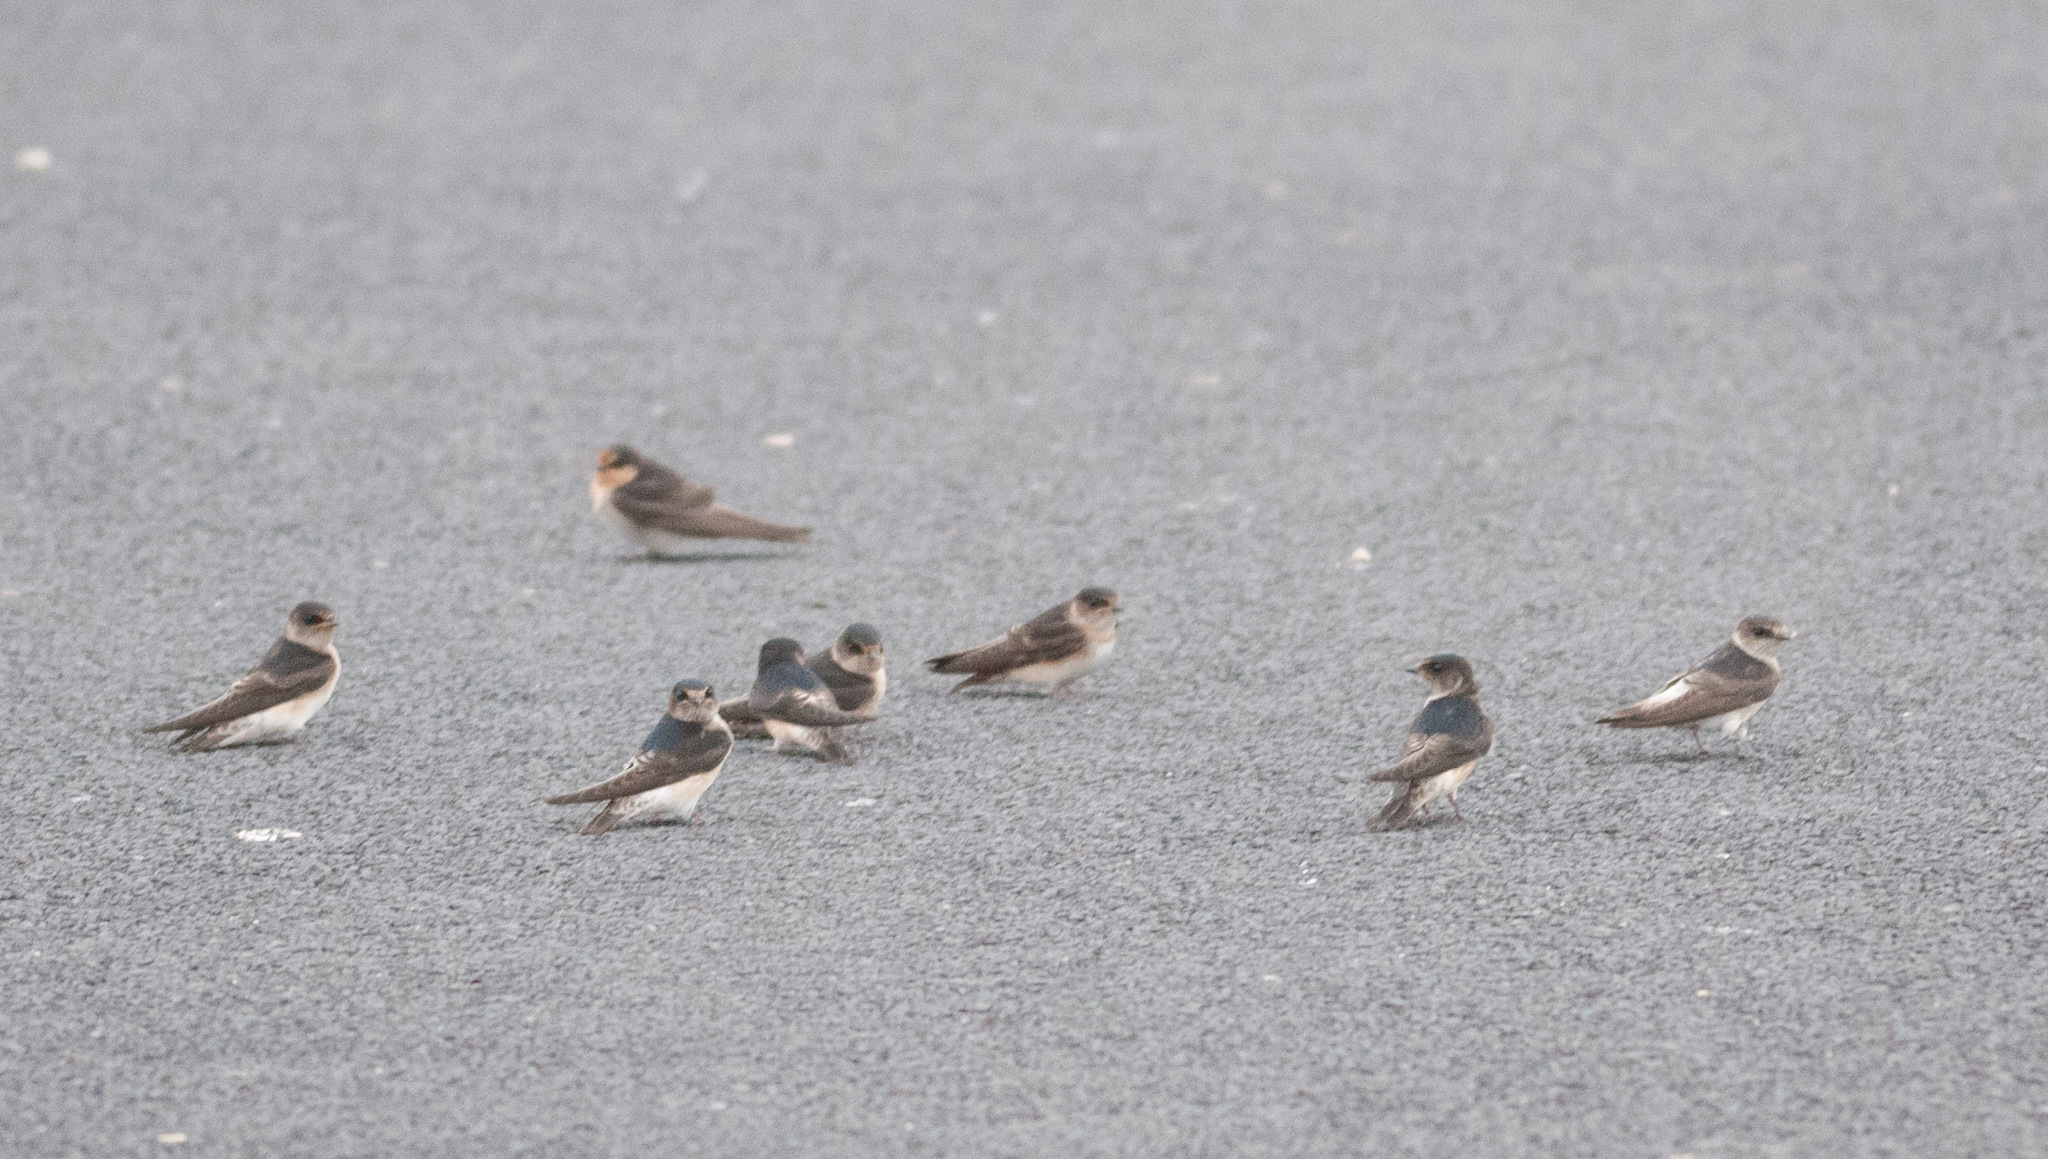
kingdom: Animalia
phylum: Chordata
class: Aves
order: Passeriformes
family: Hirundinidae
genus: Petrochelidon
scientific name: Petrochelidon nigricans
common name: Tree martin
